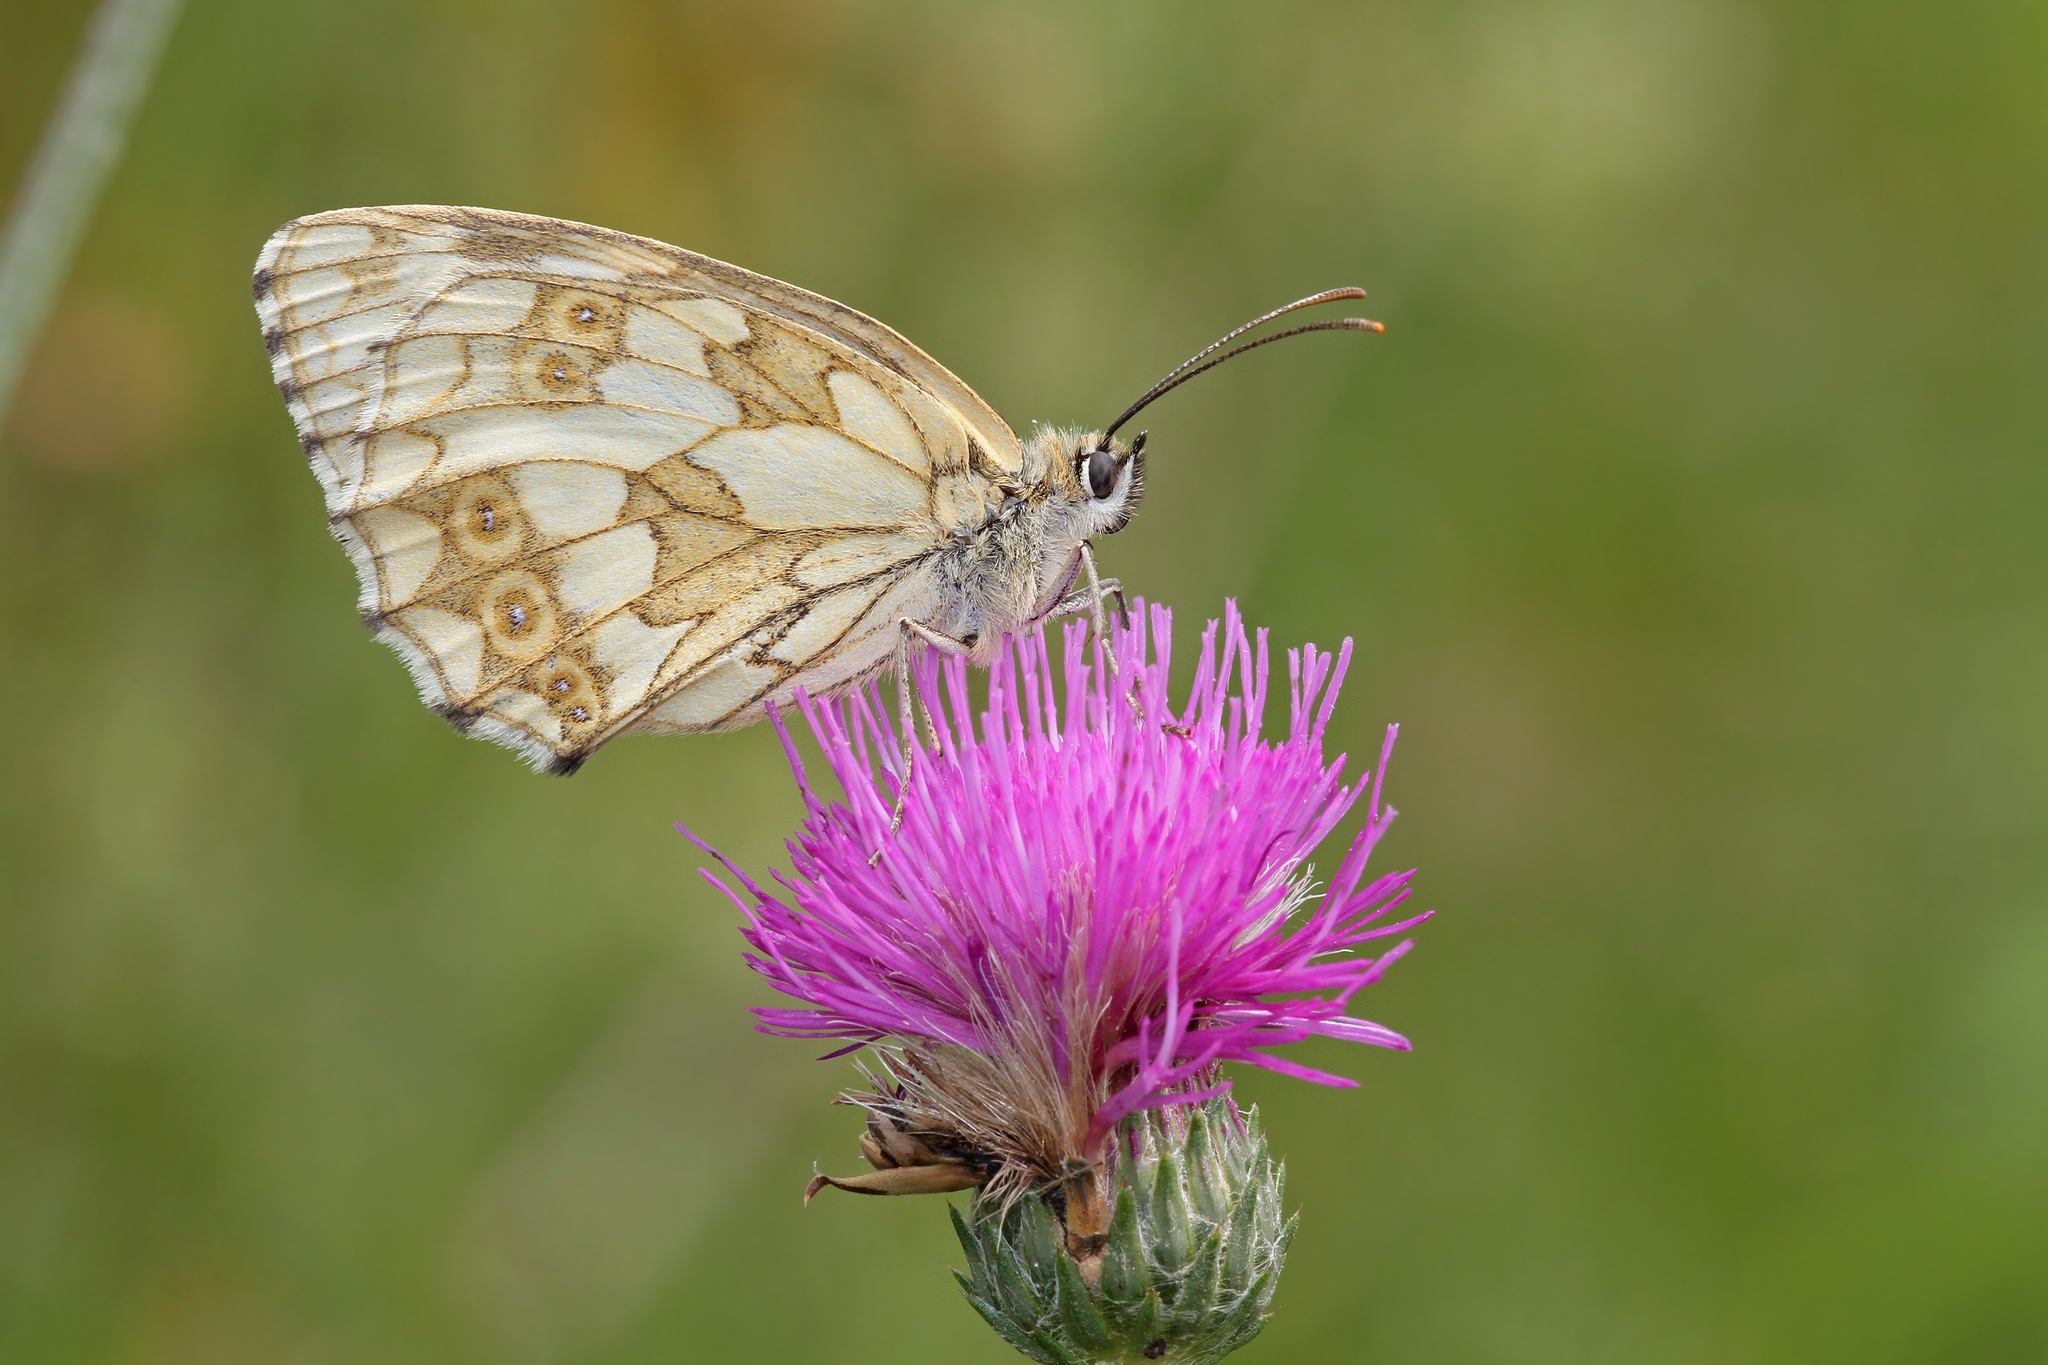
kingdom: Animalia
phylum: Arthropoda
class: Insecta
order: Lepidoptera
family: Nymphalidae
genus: Melanargia
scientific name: Melanargia galathea
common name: Marbled white
